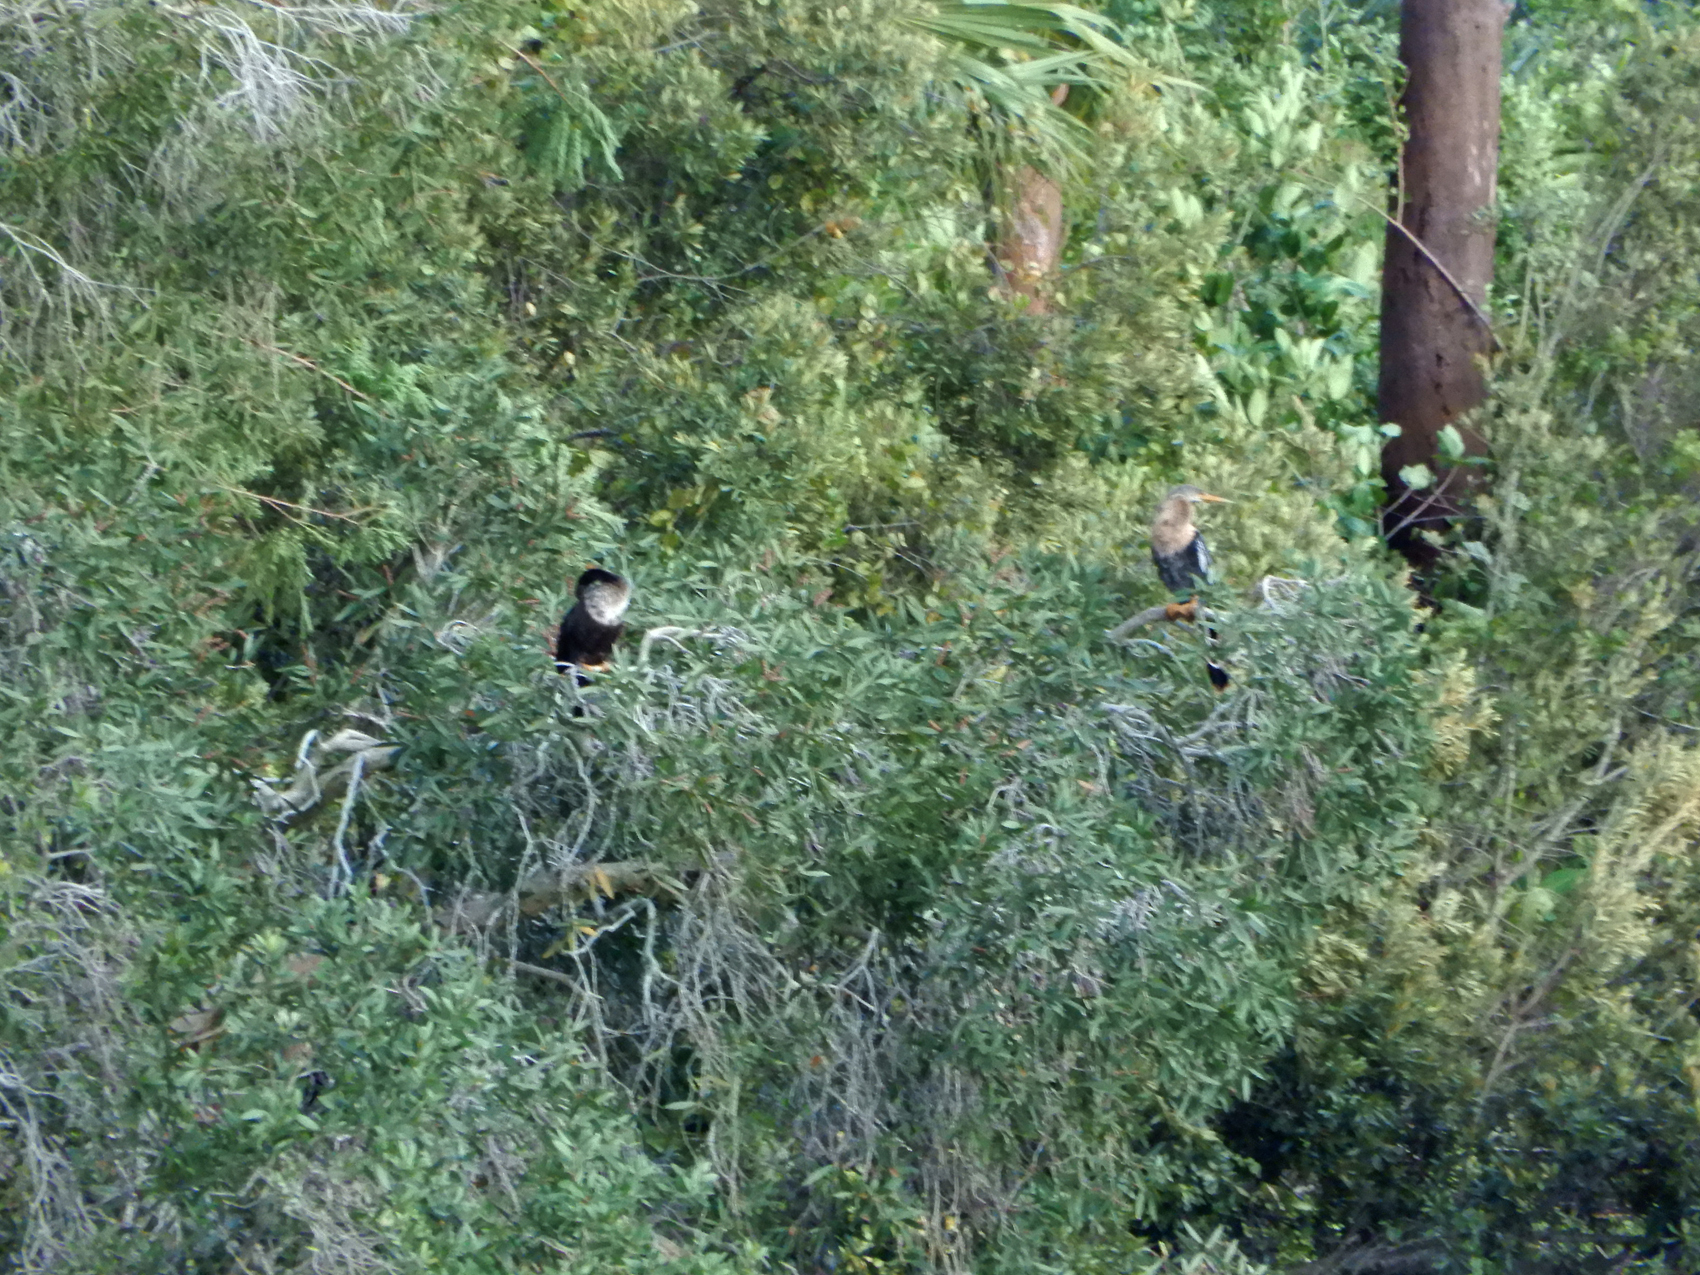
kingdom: Animalia
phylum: Chordata
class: Aves
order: Suliformes
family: Anhingidae
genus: Anhinga
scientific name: Anhinga anhinga
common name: Anhinga
